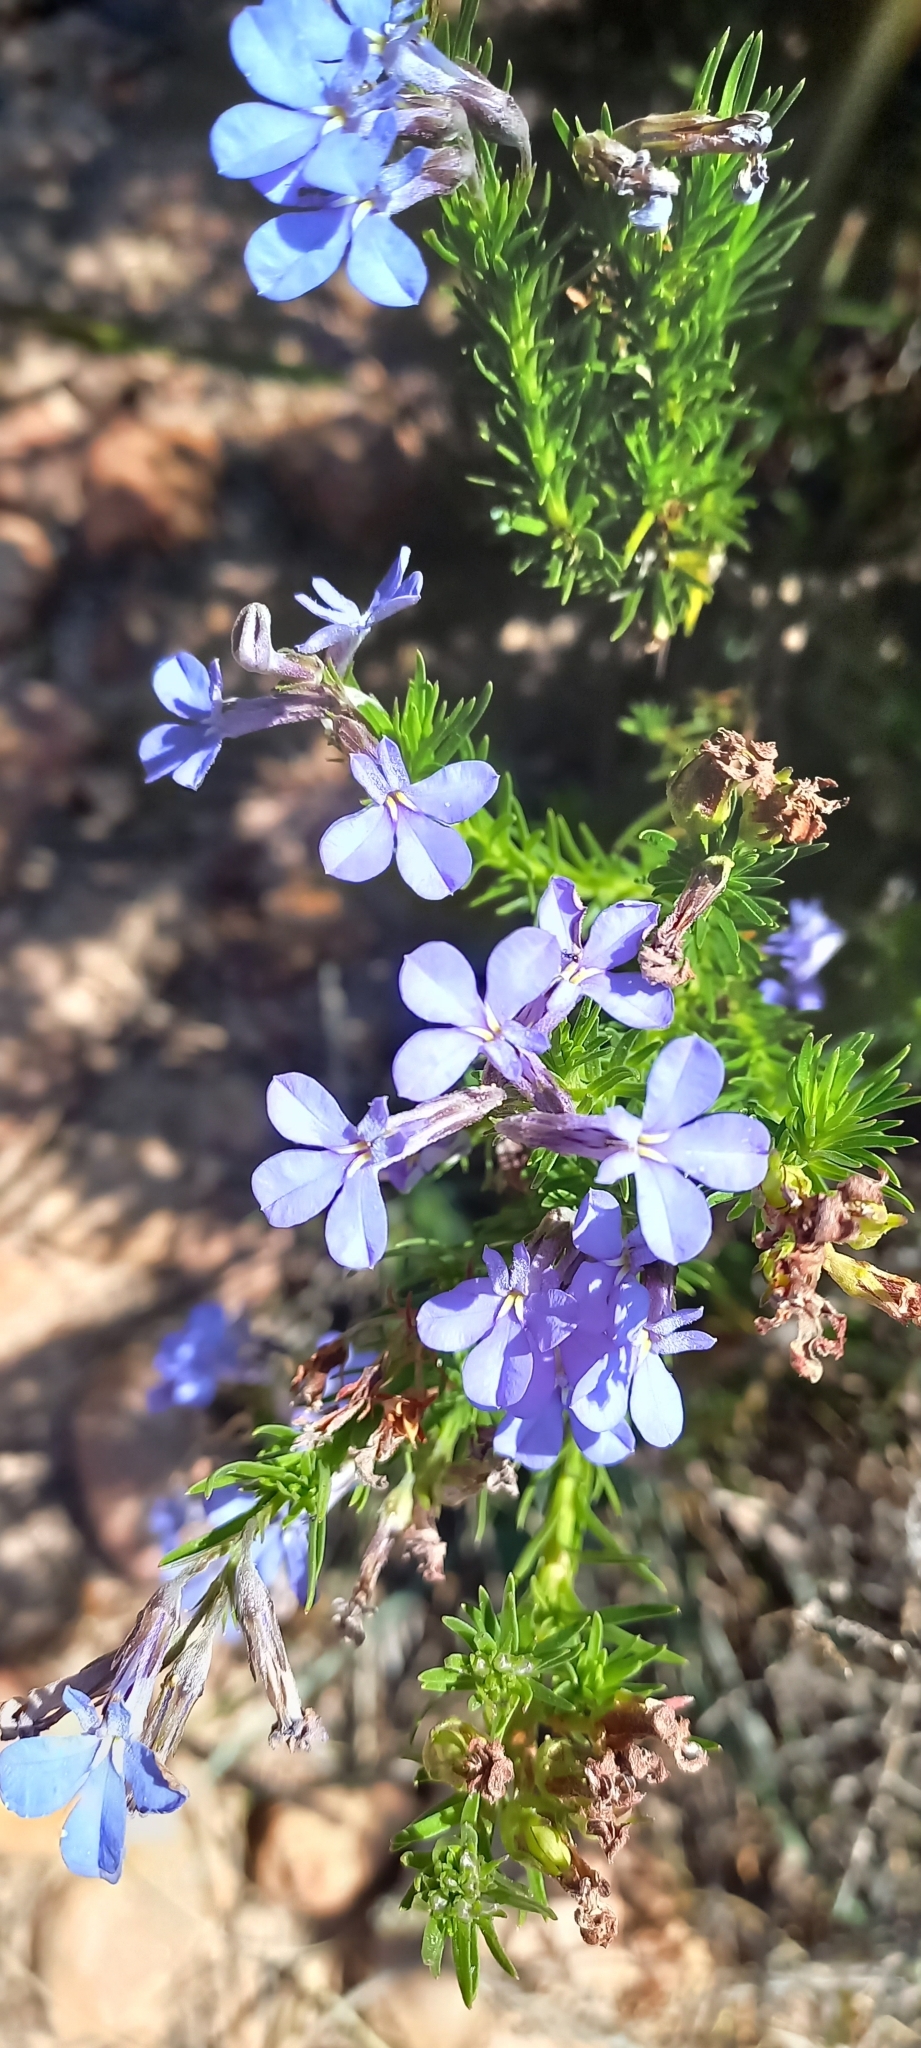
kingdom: Plantae
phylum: Tracheophyta
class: Magnoliopsida
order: Asterales
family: Campanulaceae
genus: Lobelia
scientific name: Lobelia pinifolia
